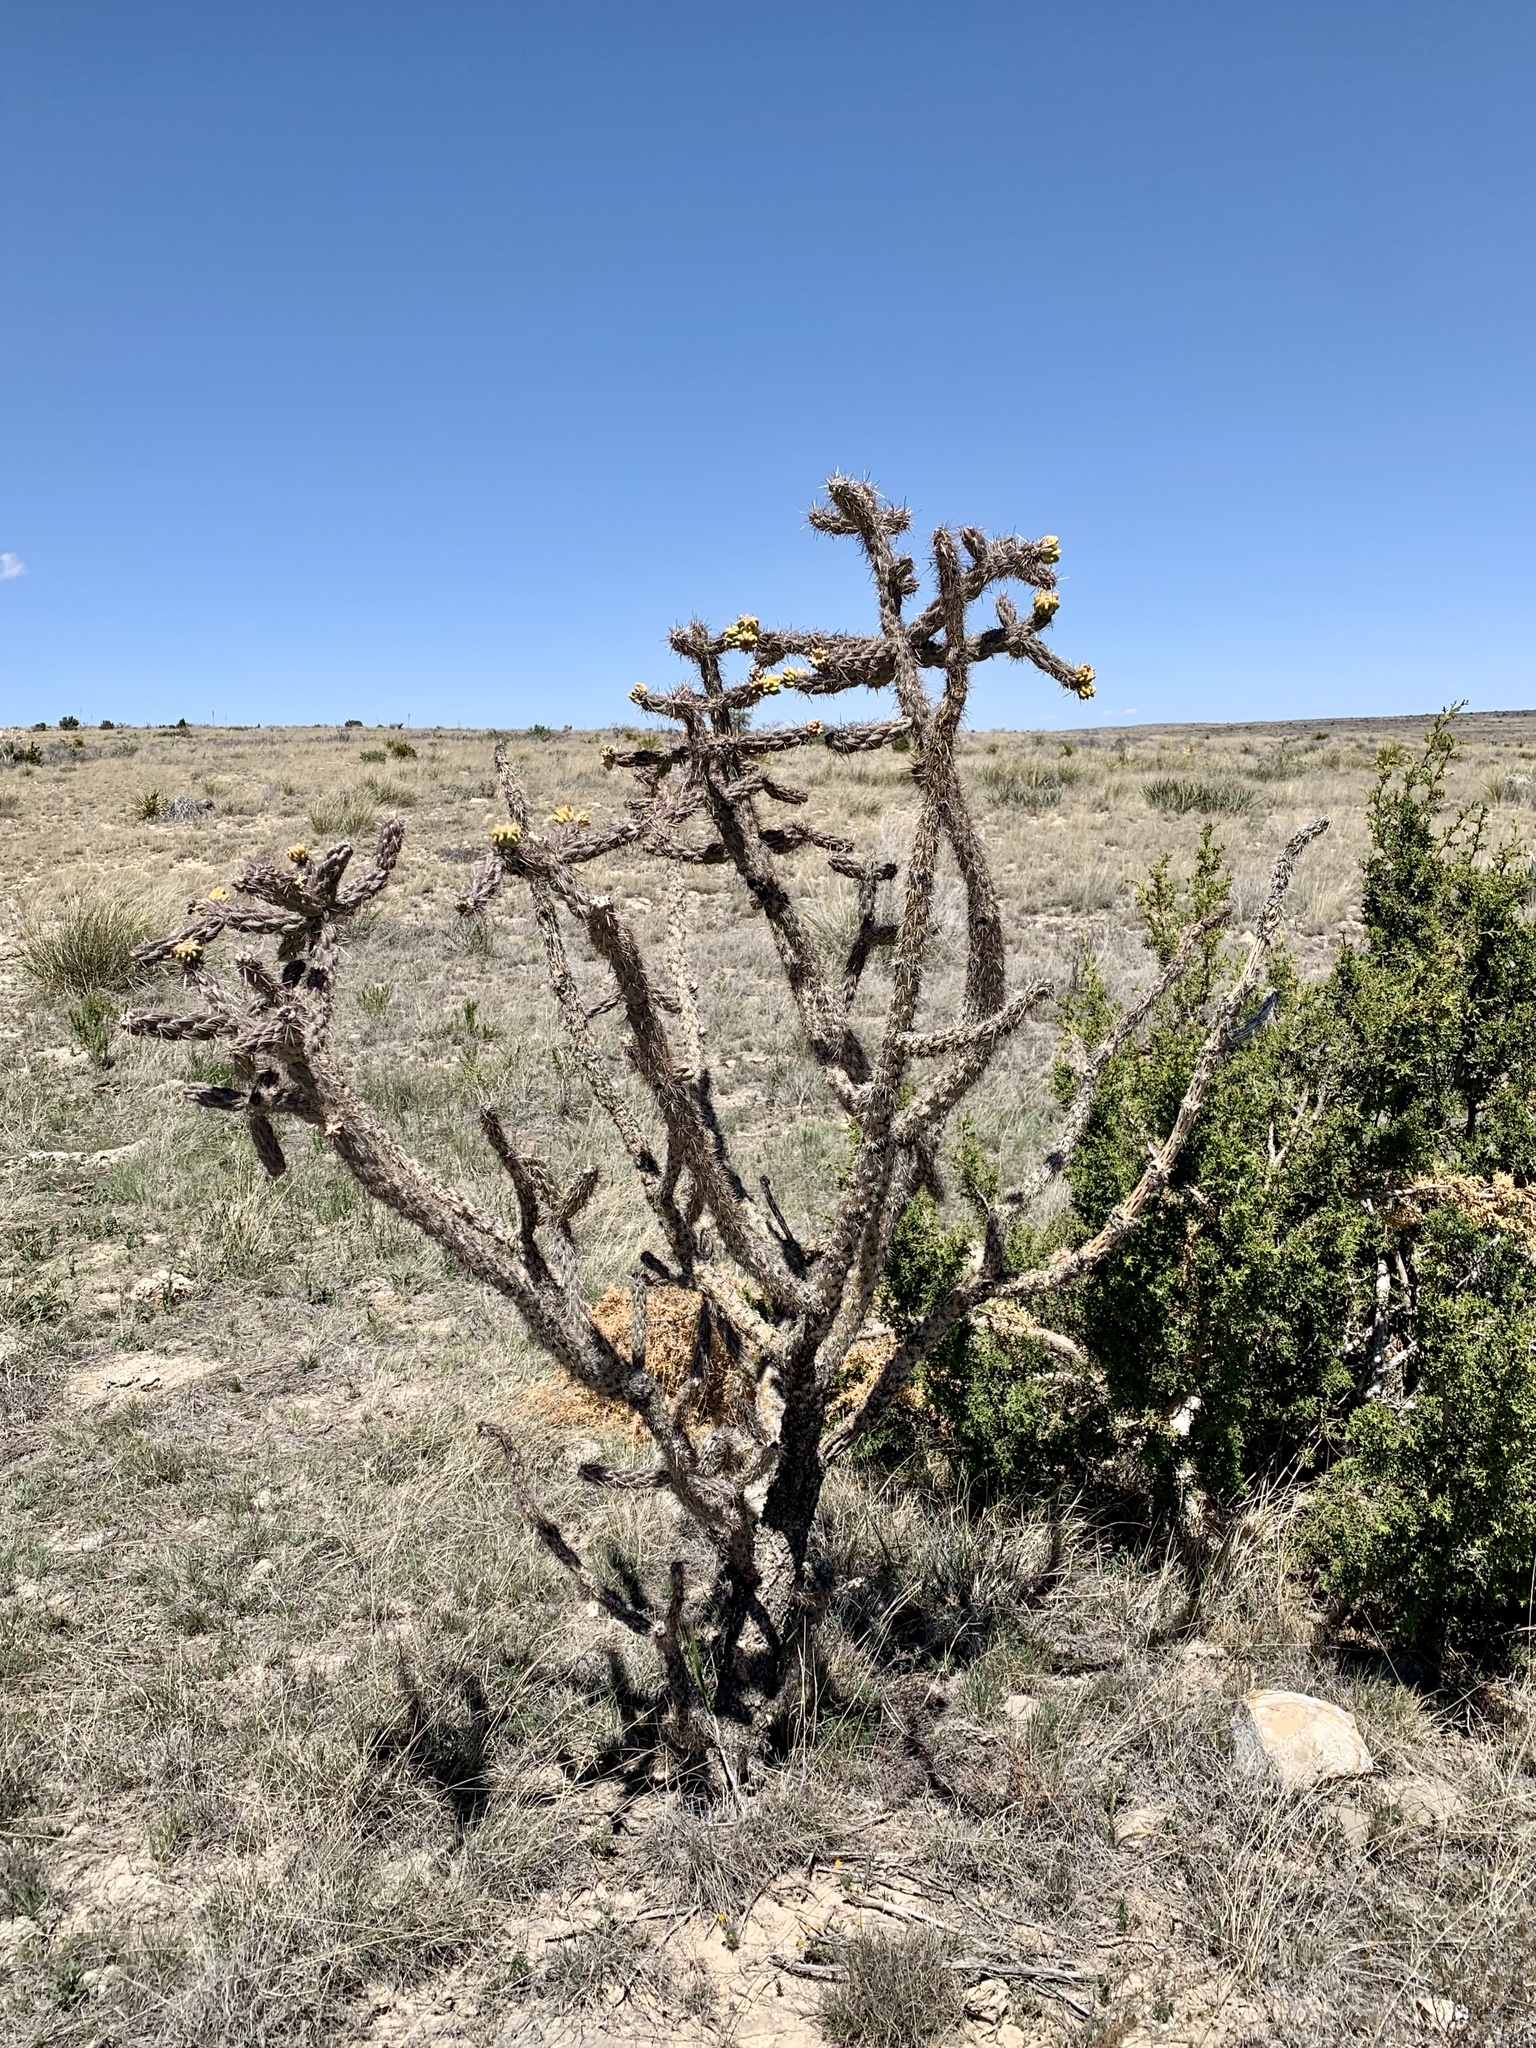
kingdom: Plantae
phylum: Tracheophyta
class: Magnoliopsida
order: Caryophyllales
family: Cactaceae
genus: Cylindropuntia
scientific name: Cylindropuntia imbricata
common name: Candelabrum cactus
